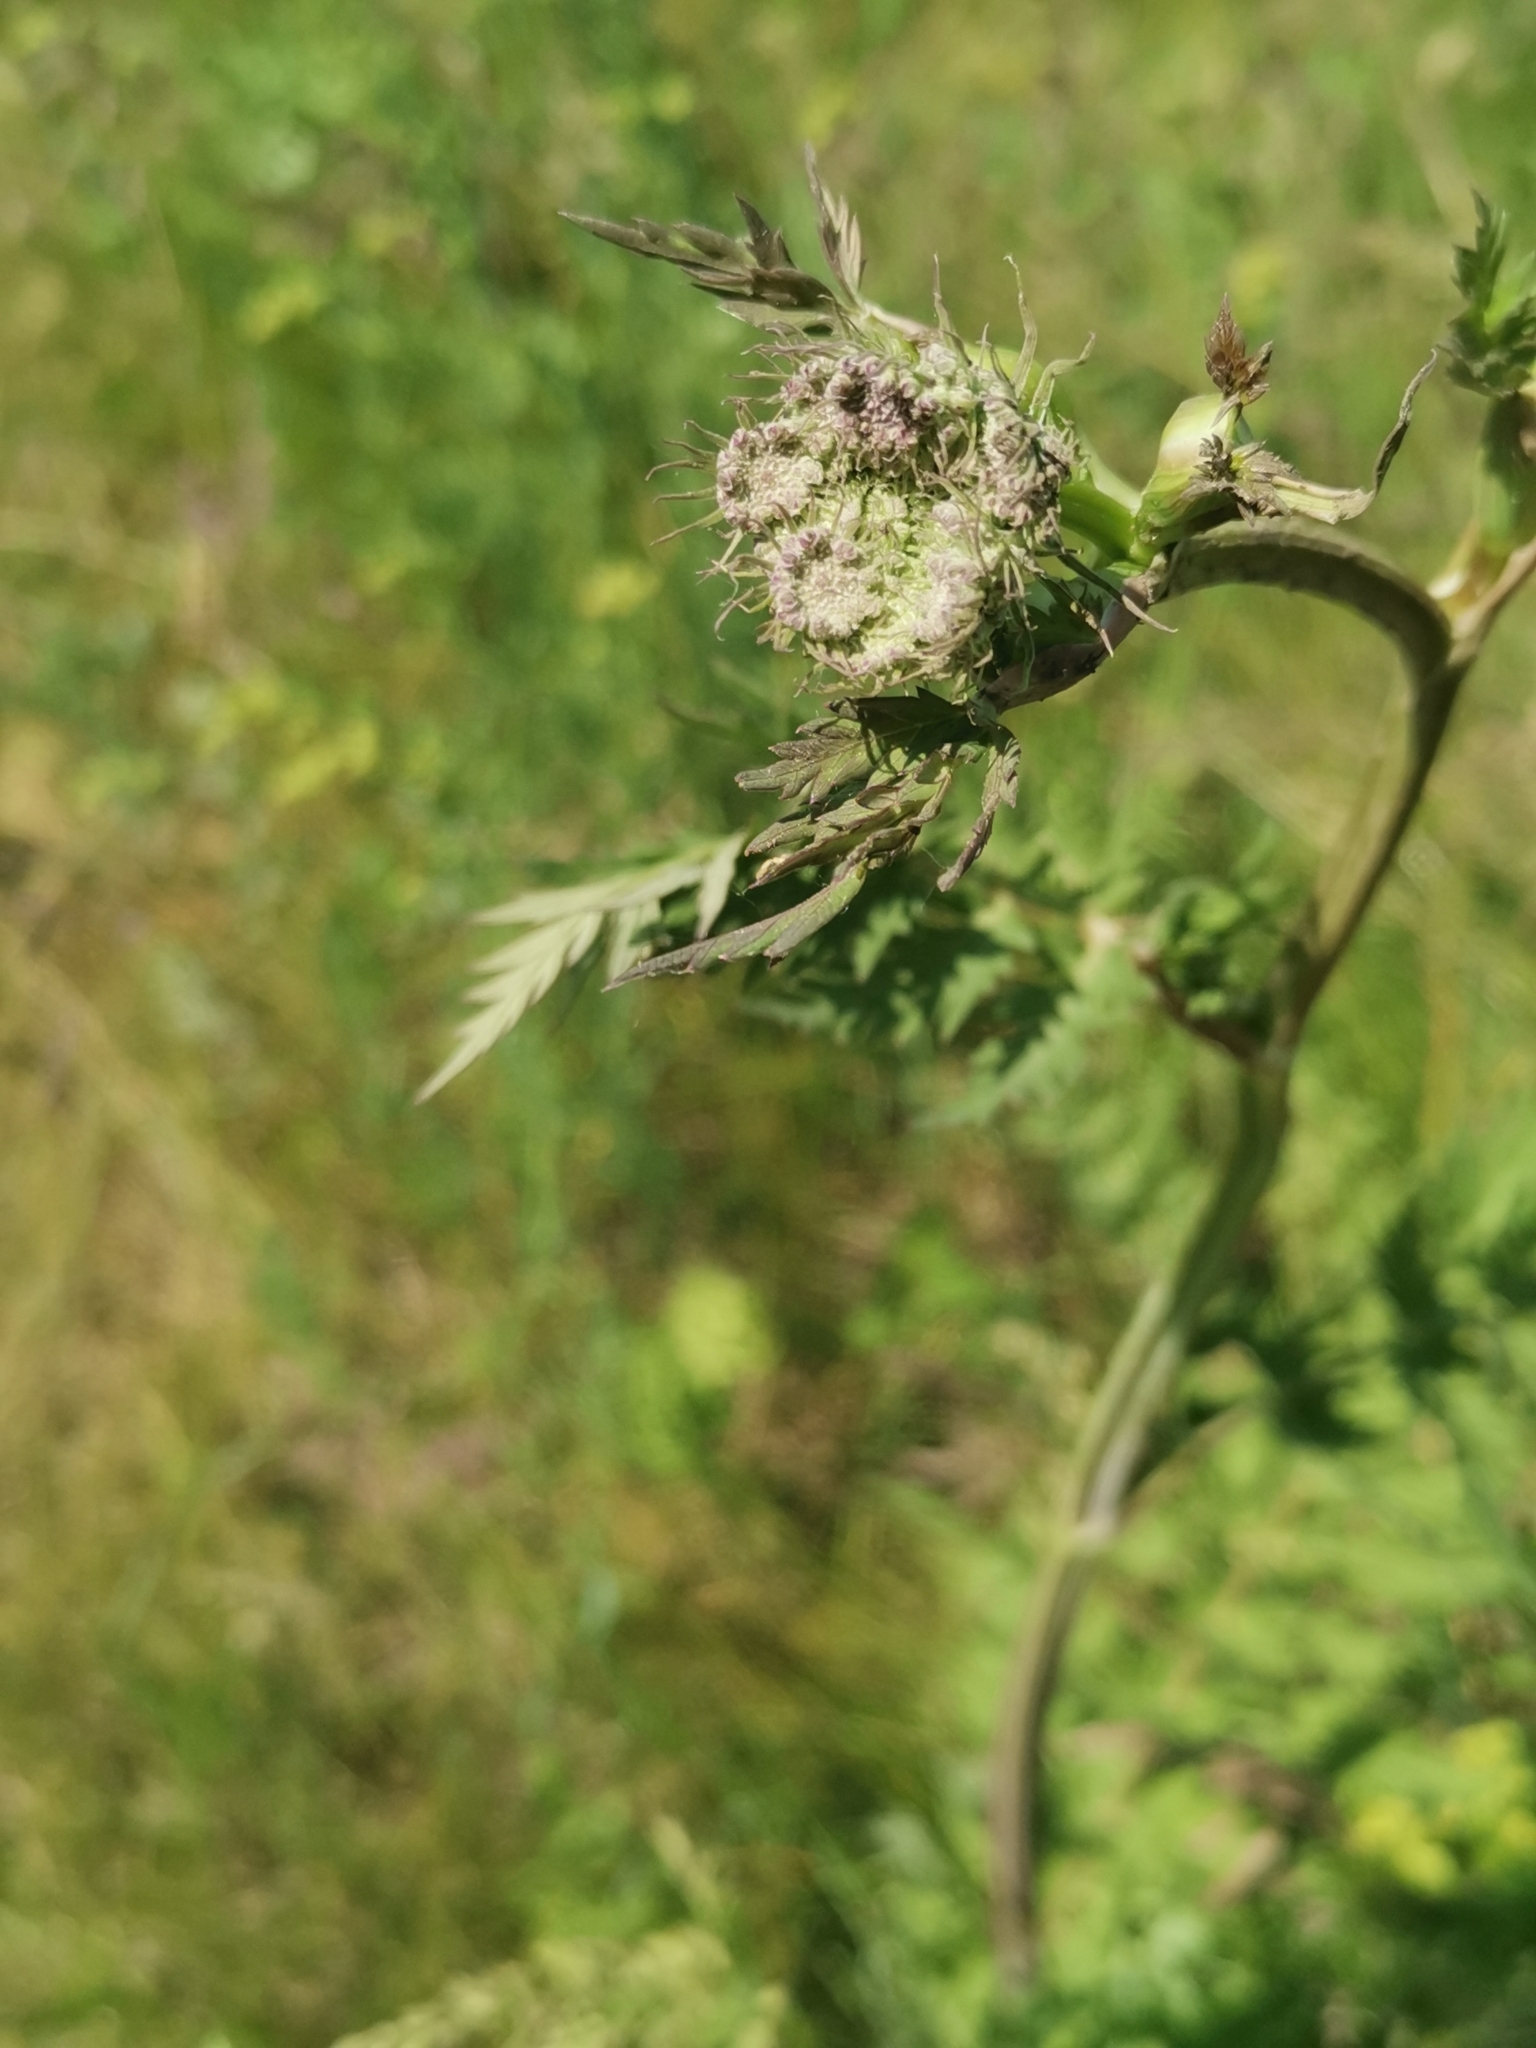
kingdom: Plantae
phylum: Tracheophyta
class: Magnoliopsida
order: Apiales
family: Apiaceae
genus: Seseli
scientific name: Seseli libanotis
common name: Mooncarrot
